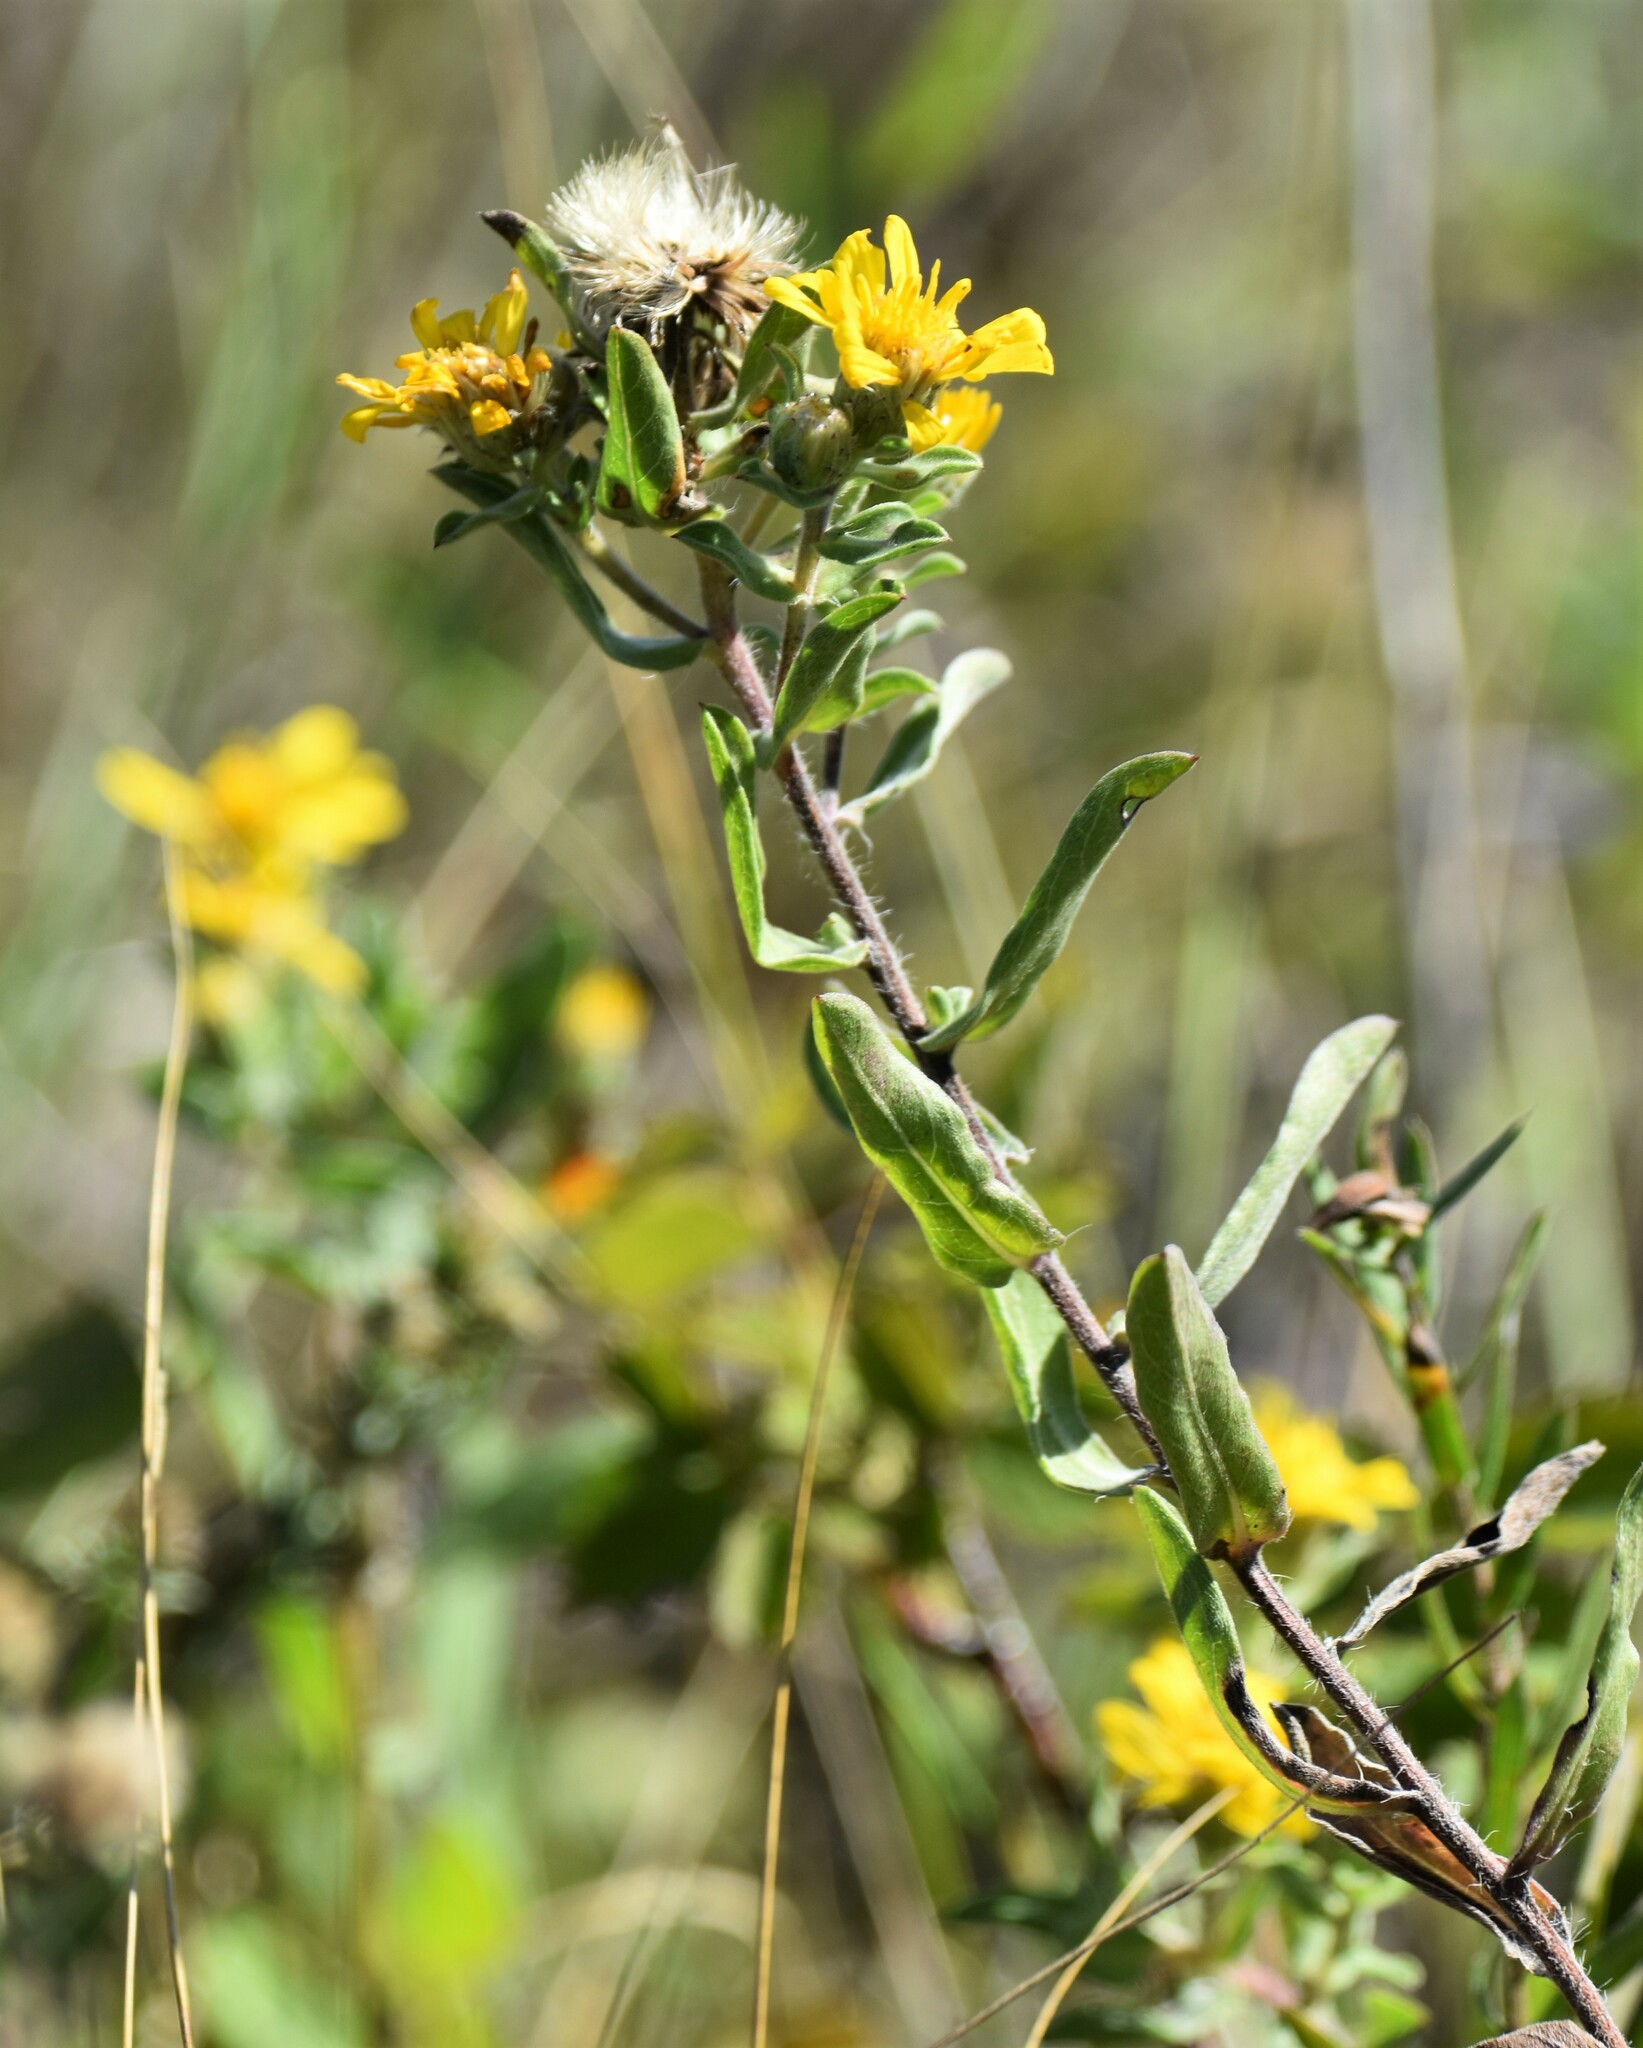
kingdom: Plantae
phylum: Tracheophyta
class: Magnoliopsida
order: Asterales
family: Asteraceae
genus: Heterotheca
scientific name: Heterotheca villosa
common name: Hairy false goldenaster
